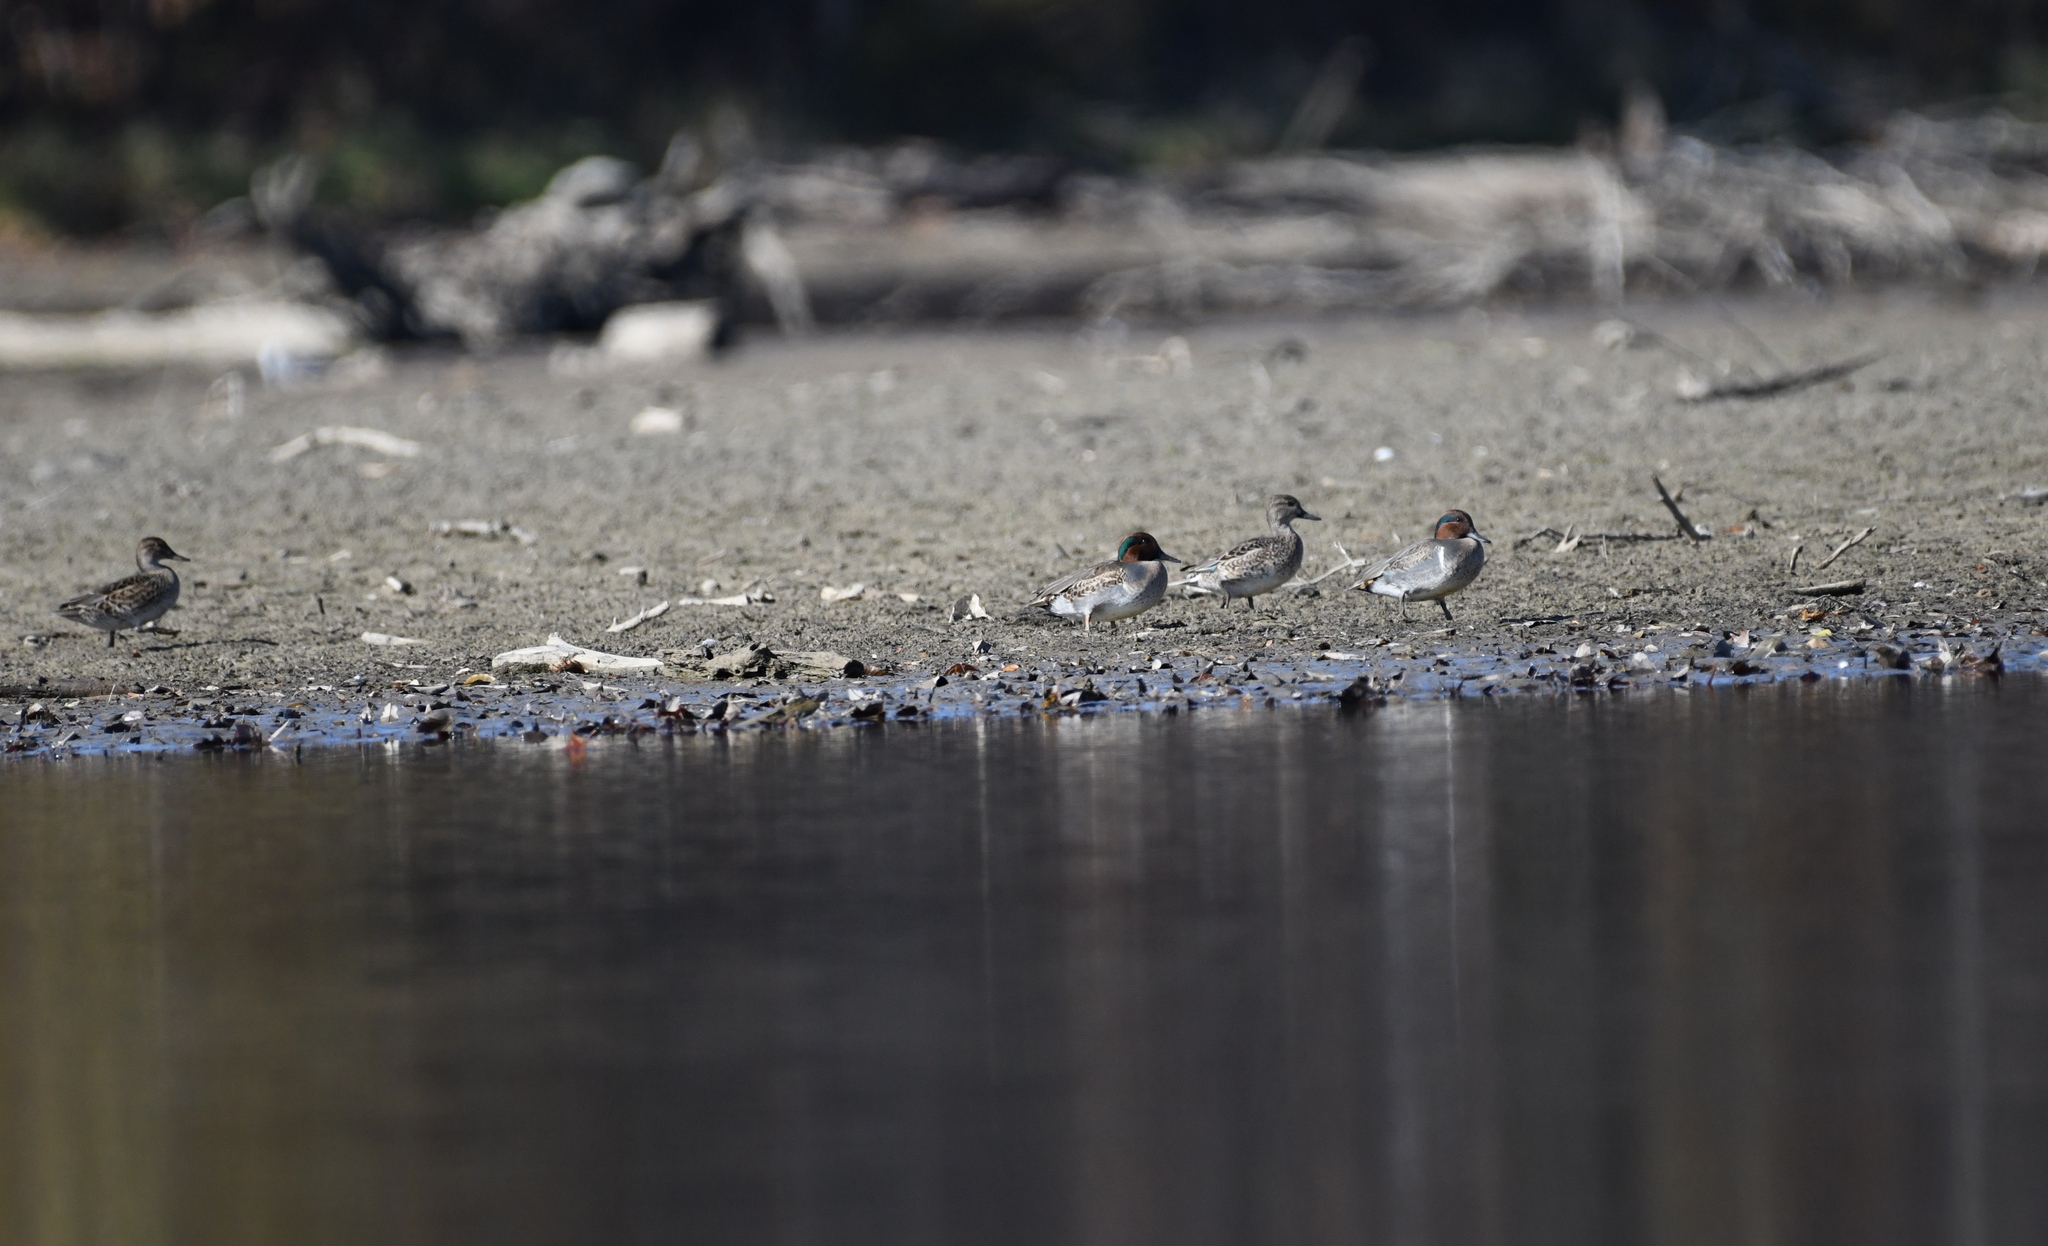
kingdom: Animalia
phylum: Chordata
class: Aves
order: Anseriformes
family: Anatidae
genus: Anas
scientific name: Anas crecca
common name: Eurasian teal
